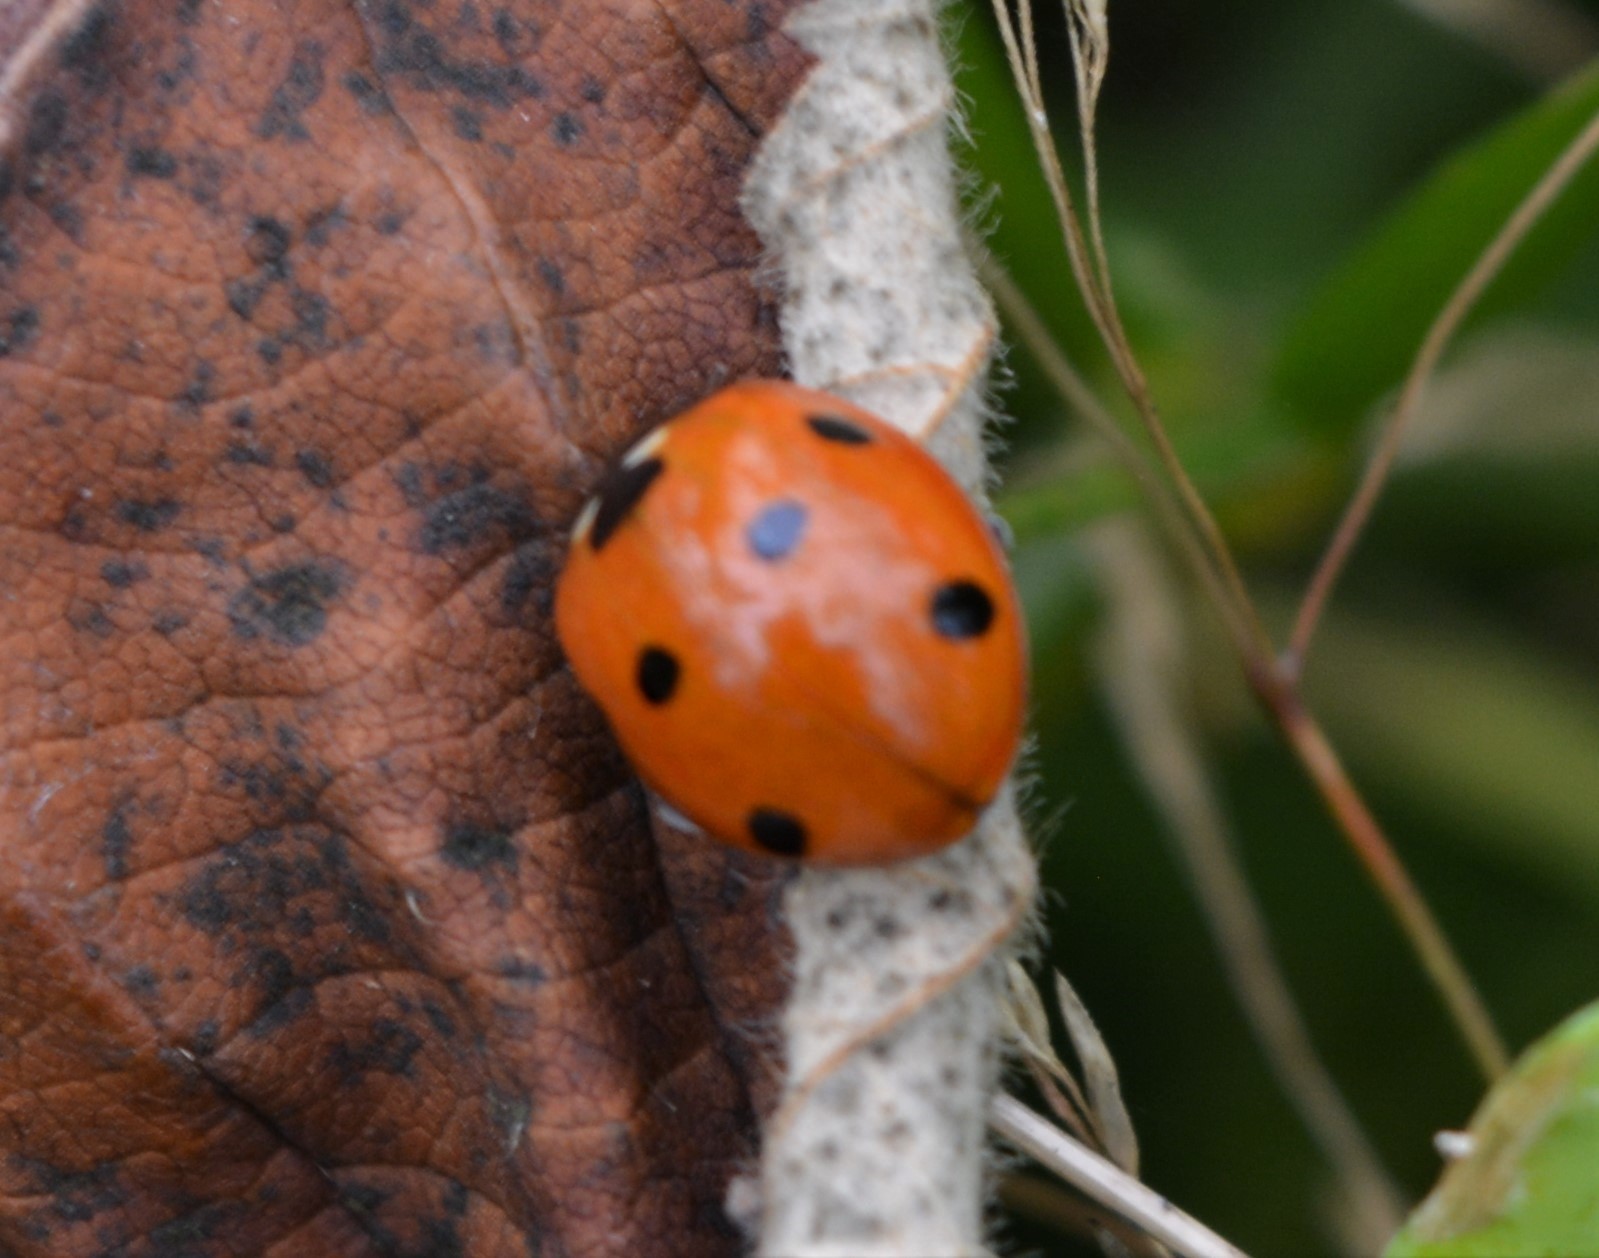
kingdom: Animalia
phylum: Arthropoda
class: Insecta
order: Coleoptera
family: Coccinellidae
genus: Coccinella
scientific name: Coccinella septempunctata
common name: Sevenspotted lady beetle
